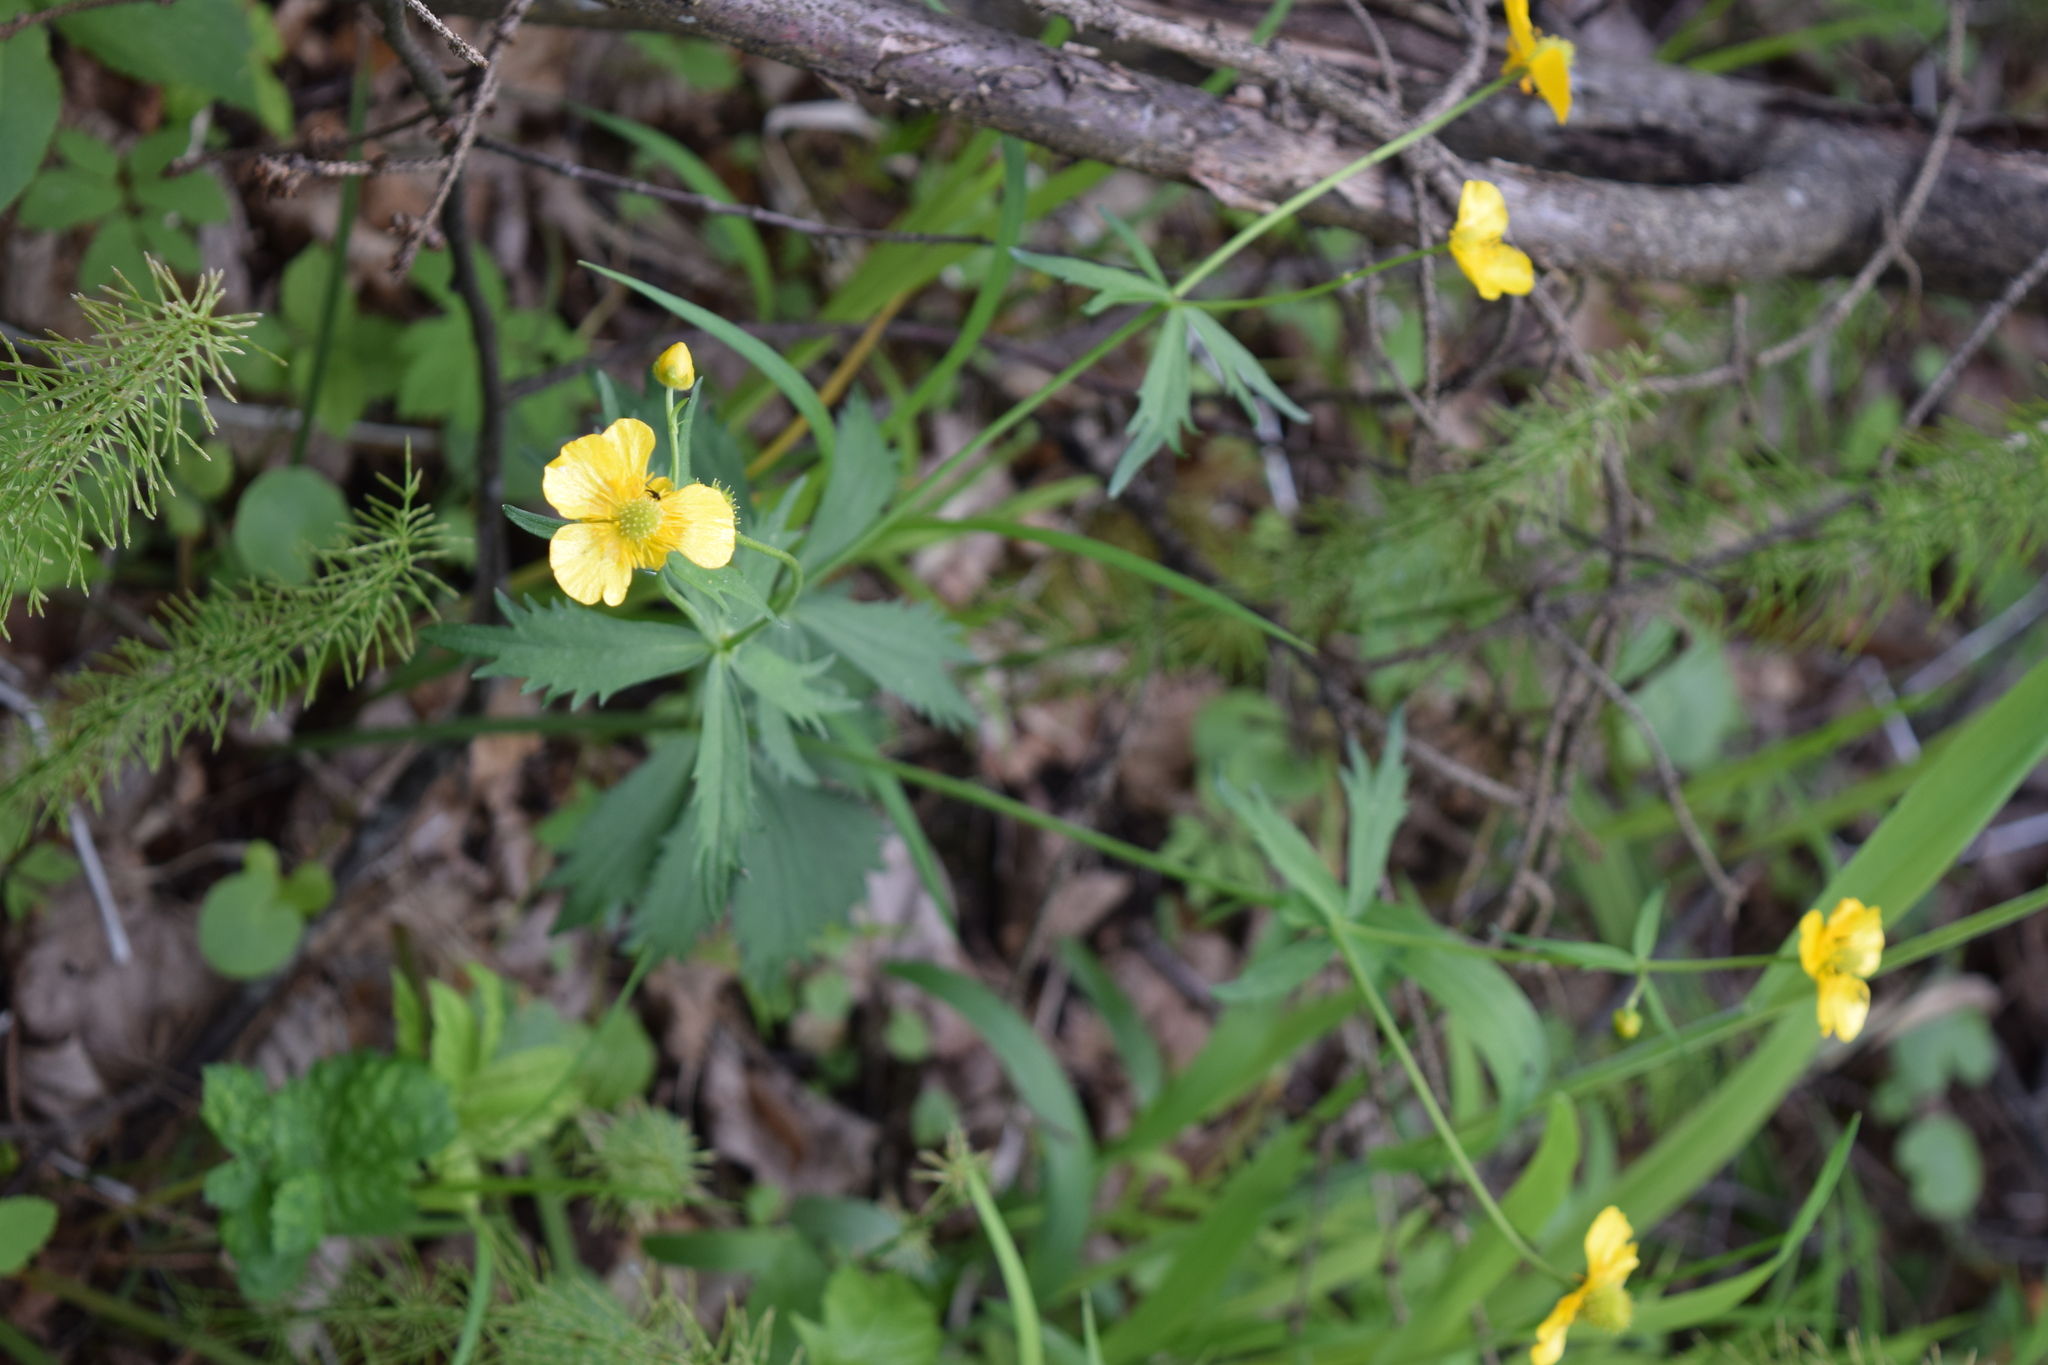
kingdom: Plantae
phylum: Tracheophyta
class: Magnoliopsida
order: Ranunculales
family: Ranunculaceae
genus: Ranunculus
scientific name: Ranunculus cassubicus
